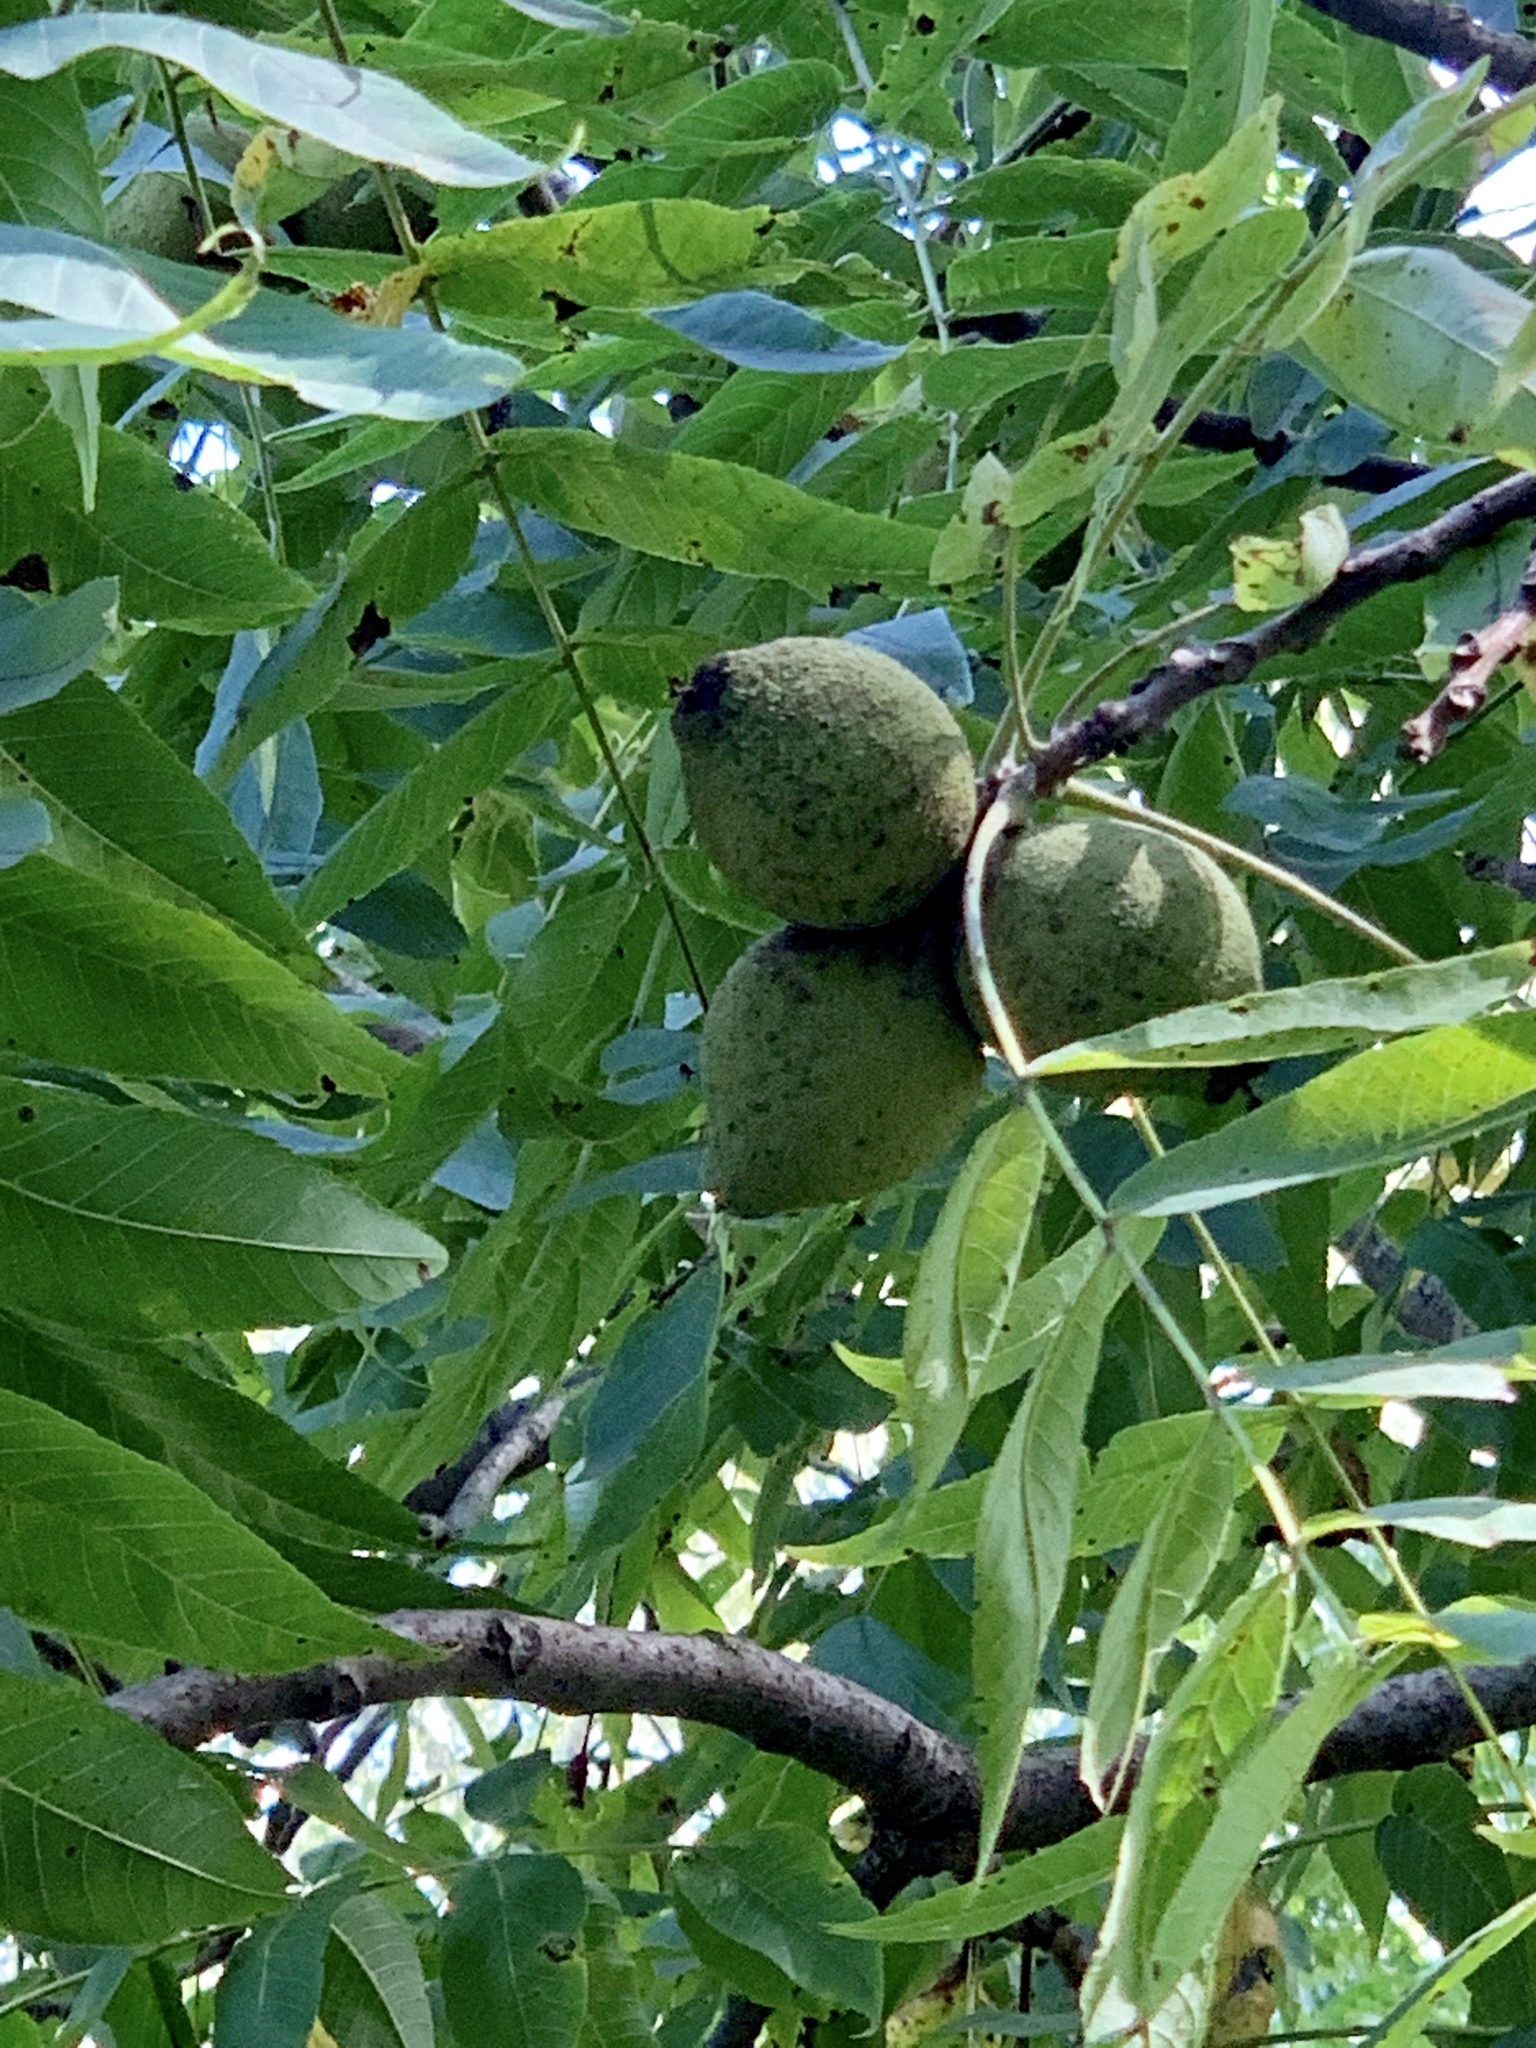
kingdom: Plantae
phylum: Tracheophyta
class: Magnoliopsida
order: Fagales
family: Juglandaceae
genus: Juglans
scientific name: Juglans nigra
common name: Black walnut
